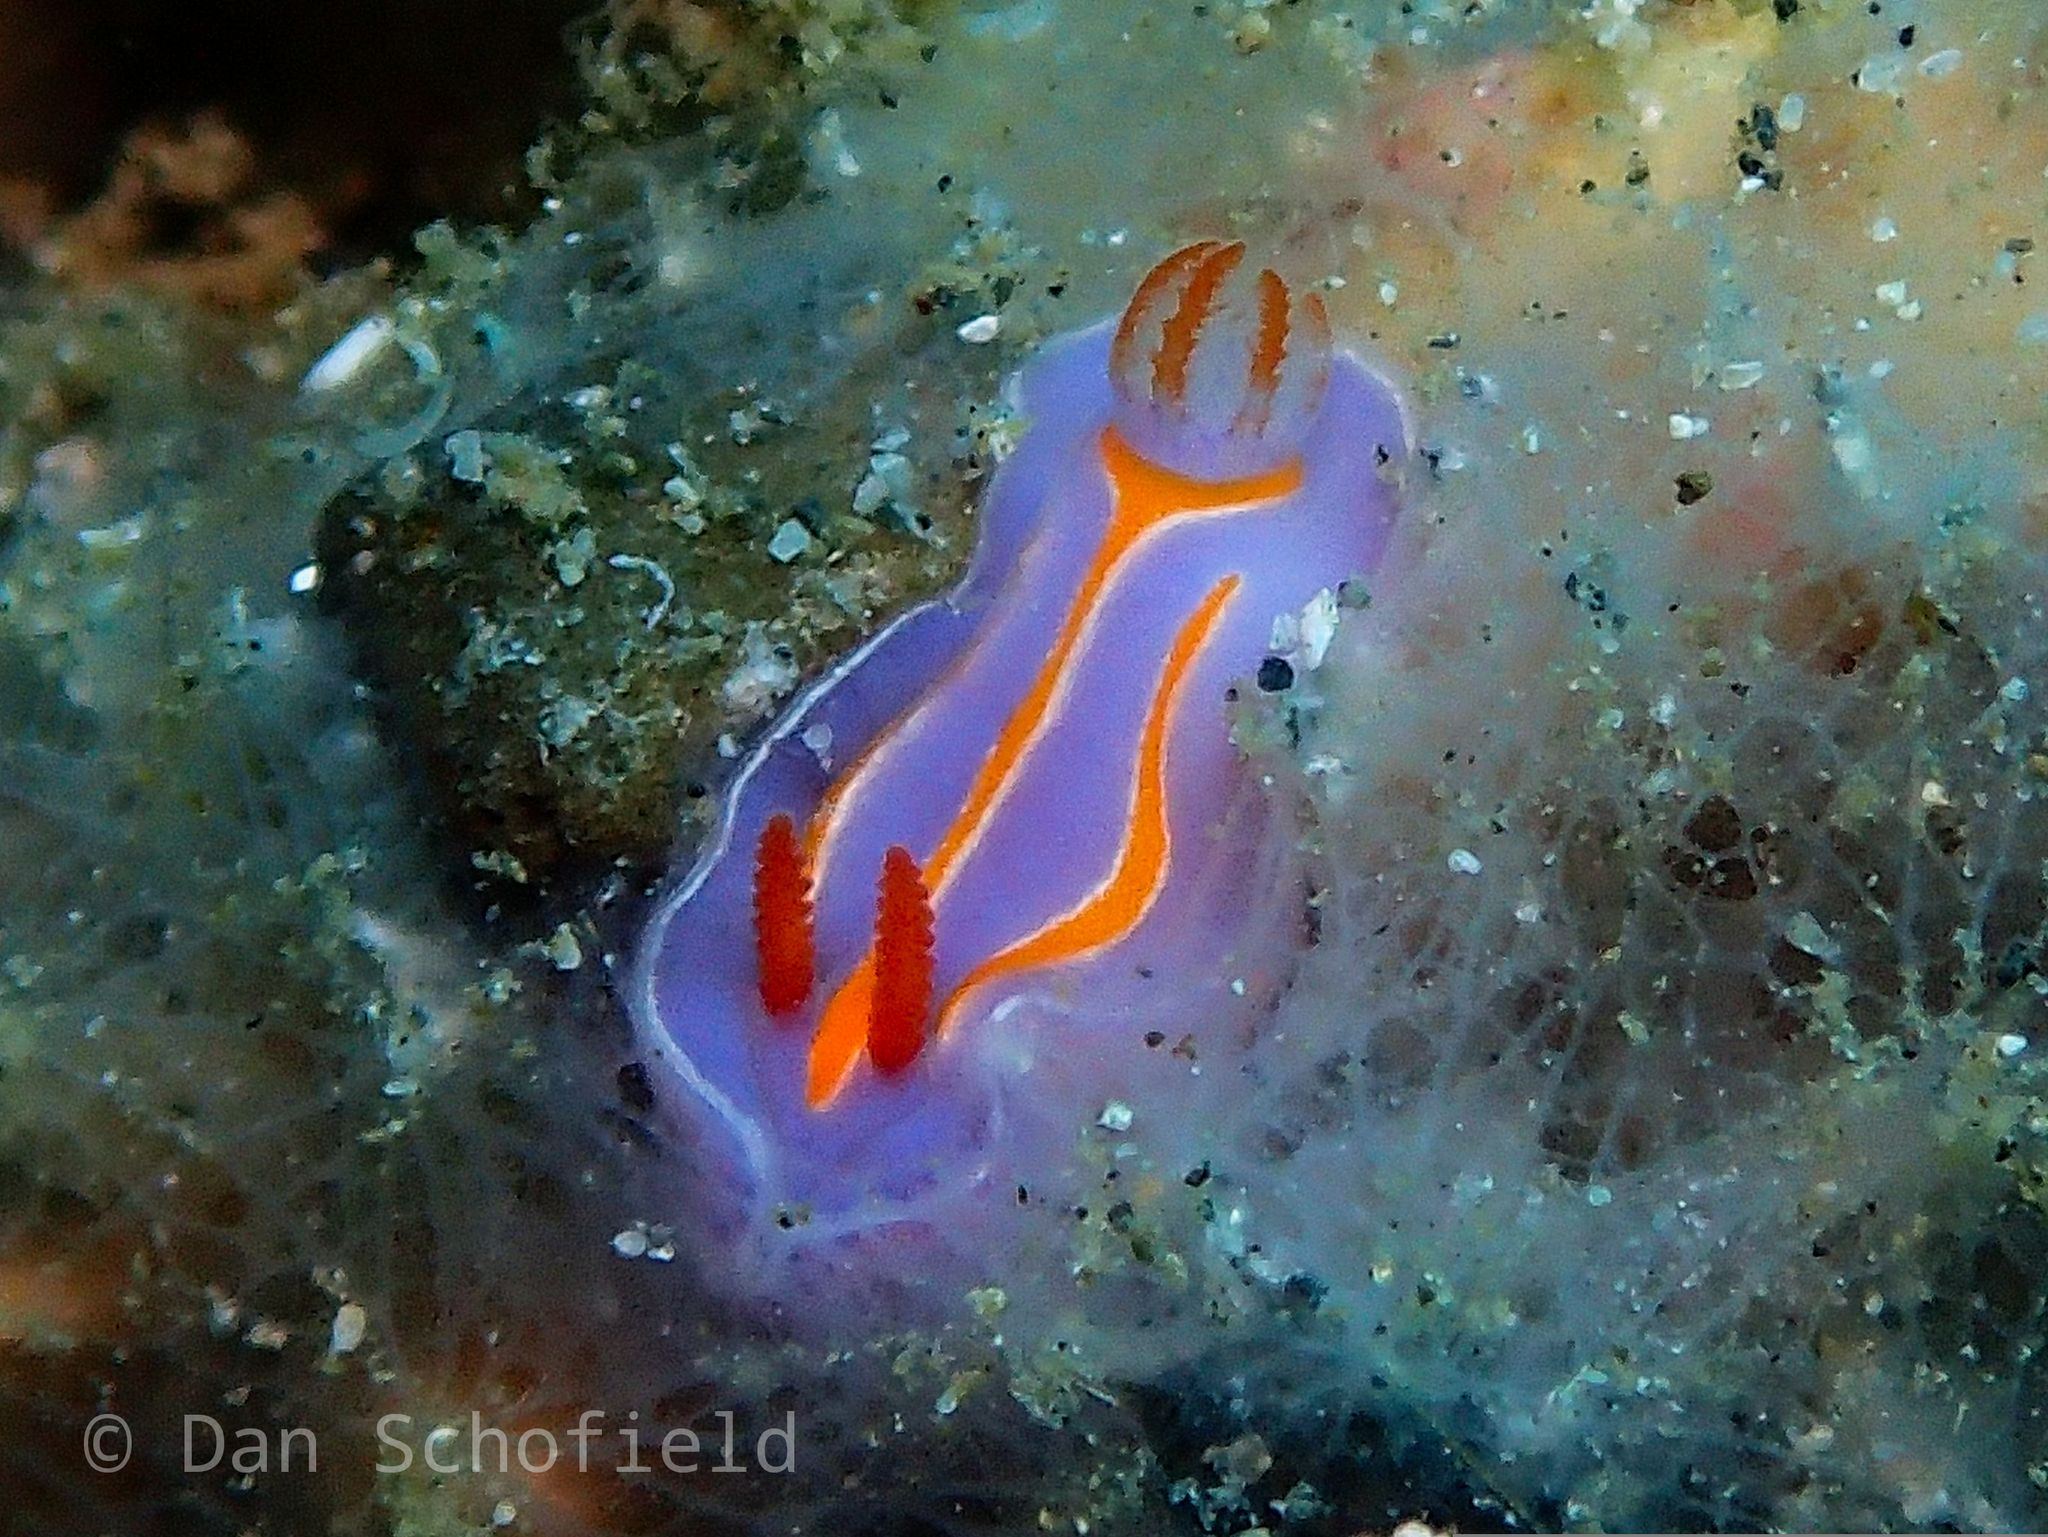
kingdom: Animalia
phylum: Mollusca
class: Gastropoda
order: Nudibranchia
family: Chromodorididae
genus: Mexichromis
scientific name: Mexichromis trilineata
